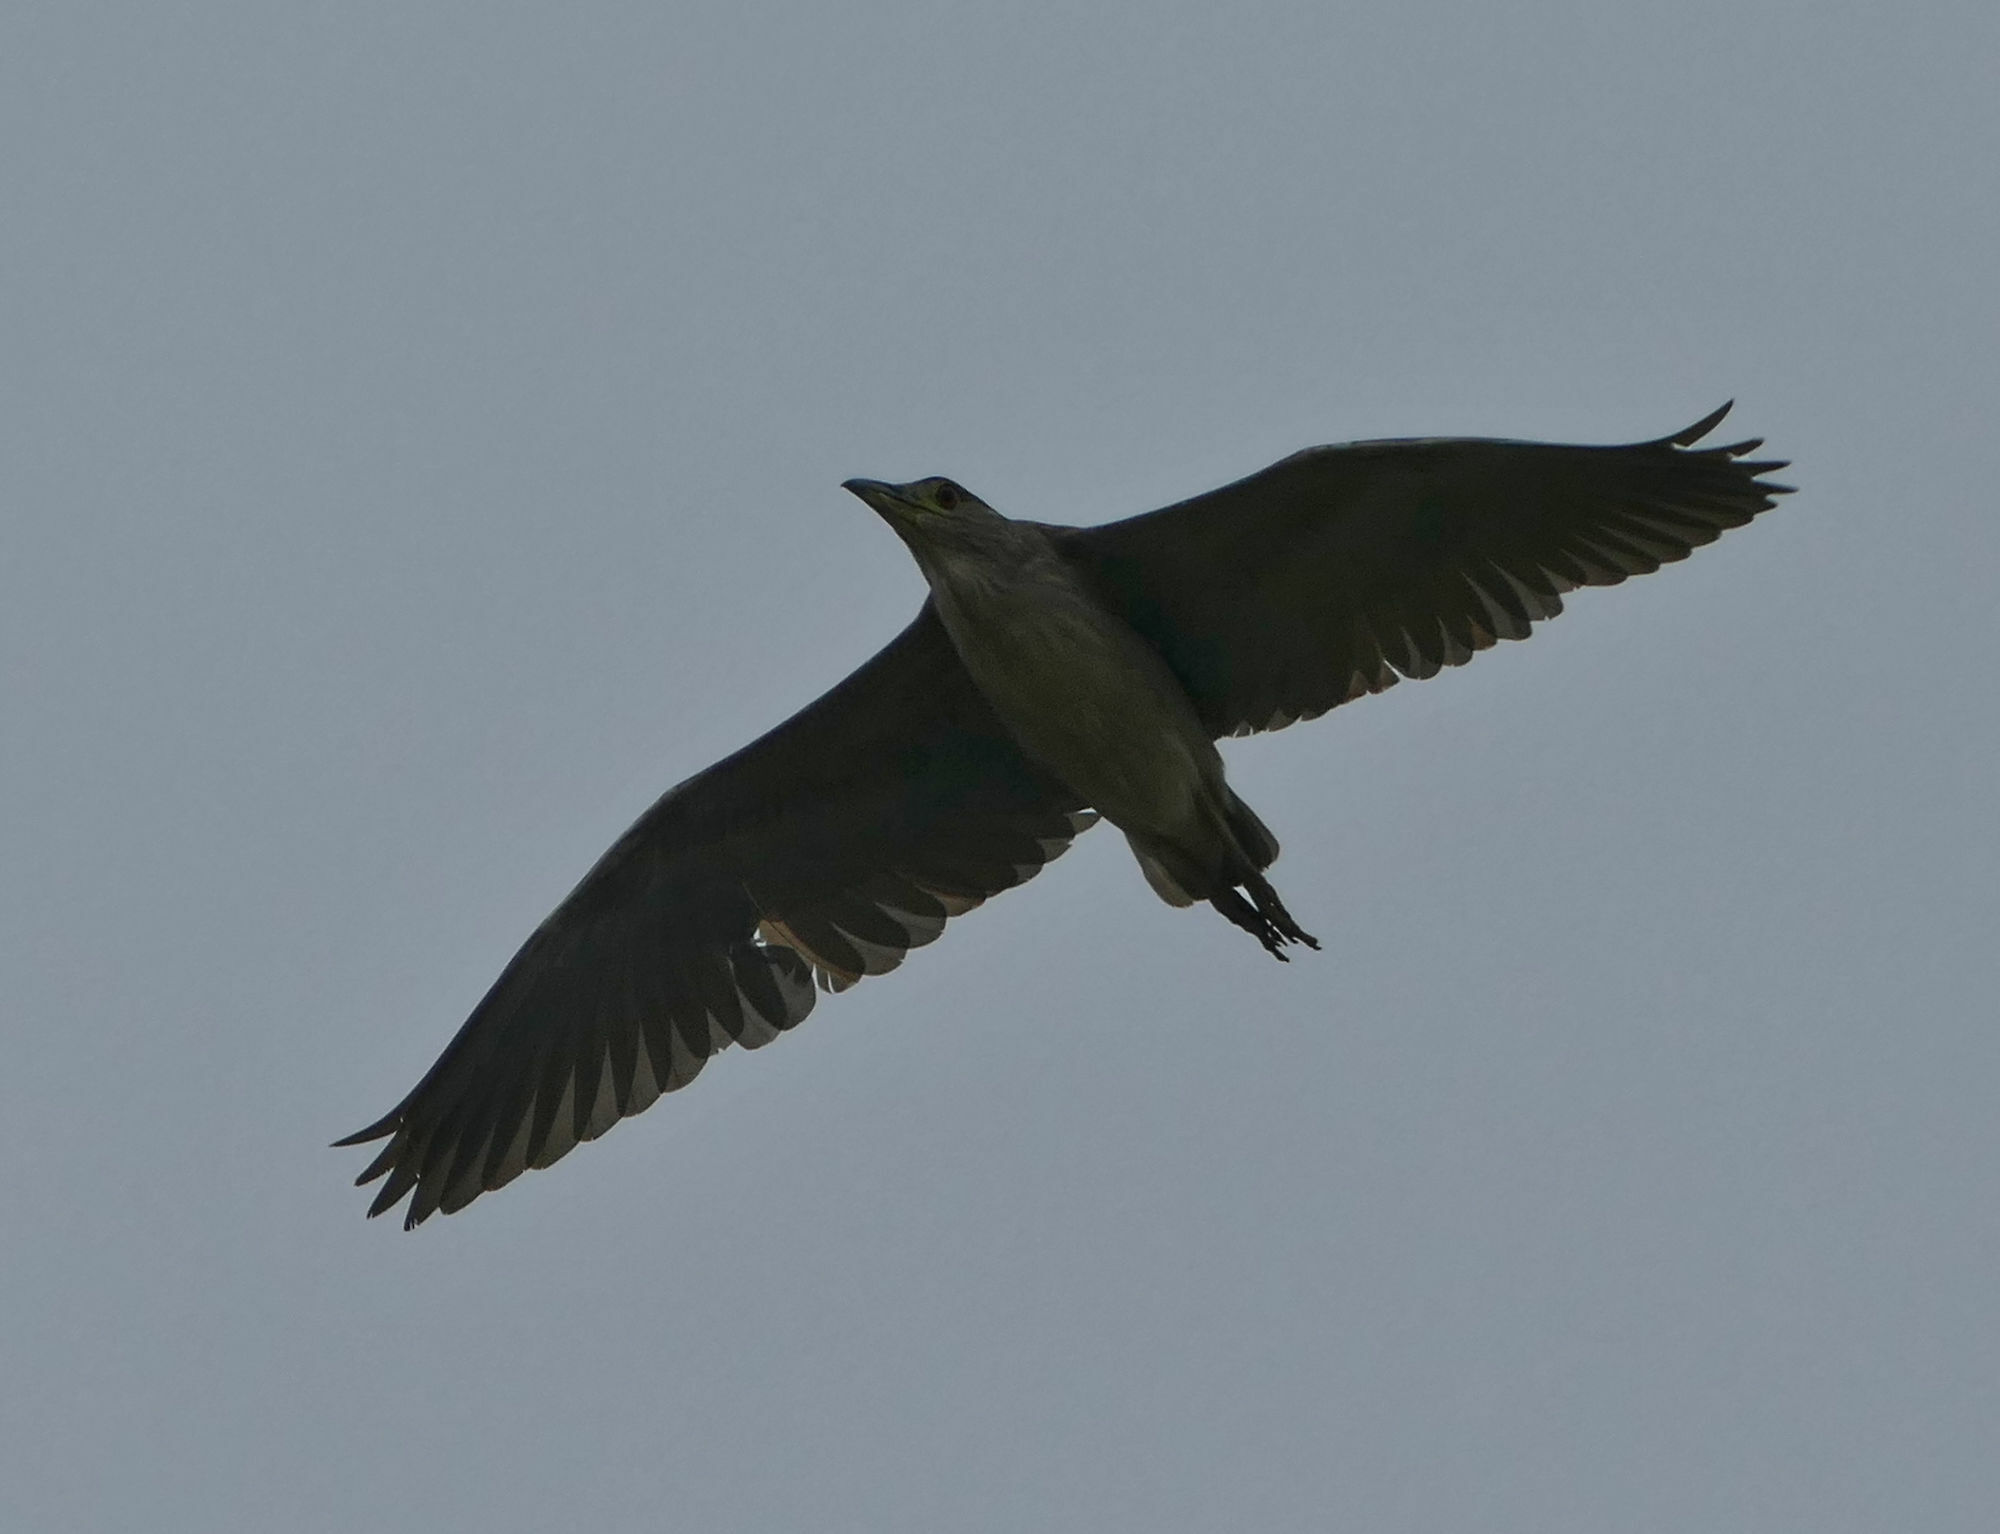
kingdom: Animalia
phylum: Chordata
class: Aves
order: Pelecaniformes
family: Ardeidae
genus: Nycticorax
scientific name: Nycticorax nycticorax
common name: Black-crowned night heron
